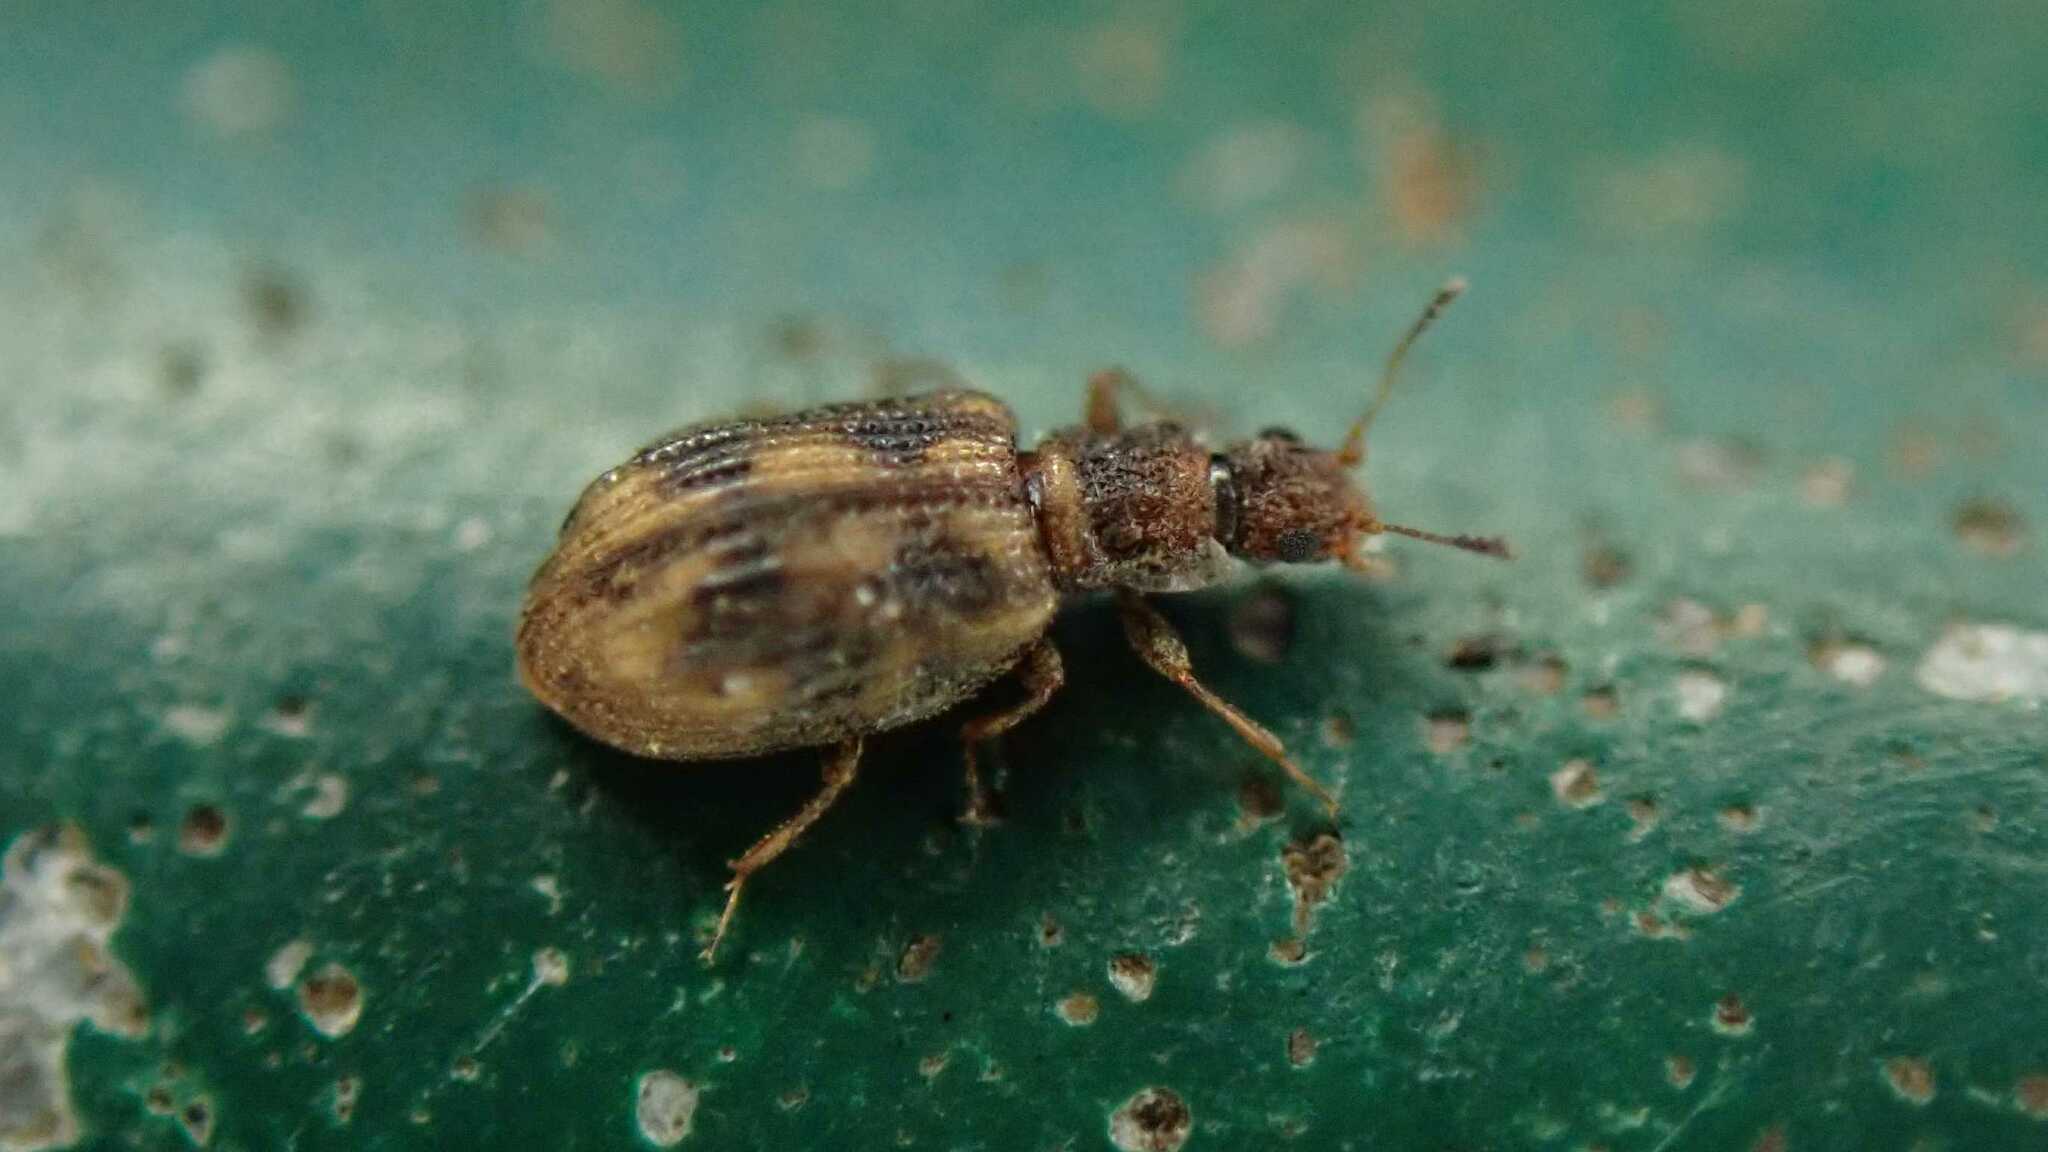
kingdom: Animalia
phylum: Arthropoda
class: Insecta
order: Coleoptera
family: Latridiidae
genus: Cartodere
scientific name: Cartodere bifasciata
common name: Plaster beetle
